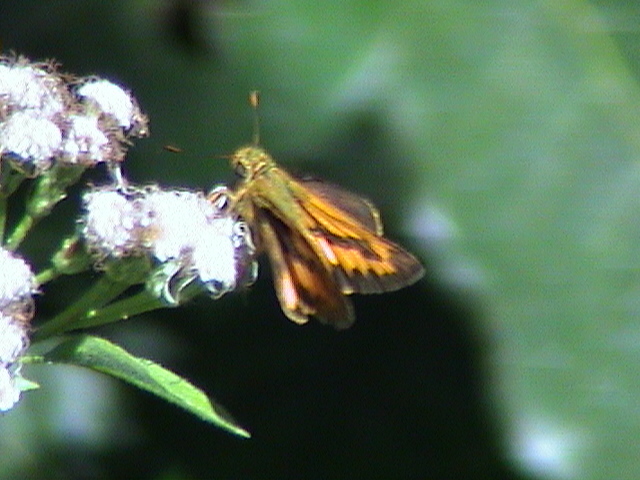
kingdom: Animalia
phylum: Arthropoda
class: Insecta
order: Lepidoptera
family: Hesperiidae
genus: Telicota
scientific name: Telicota bambusae
